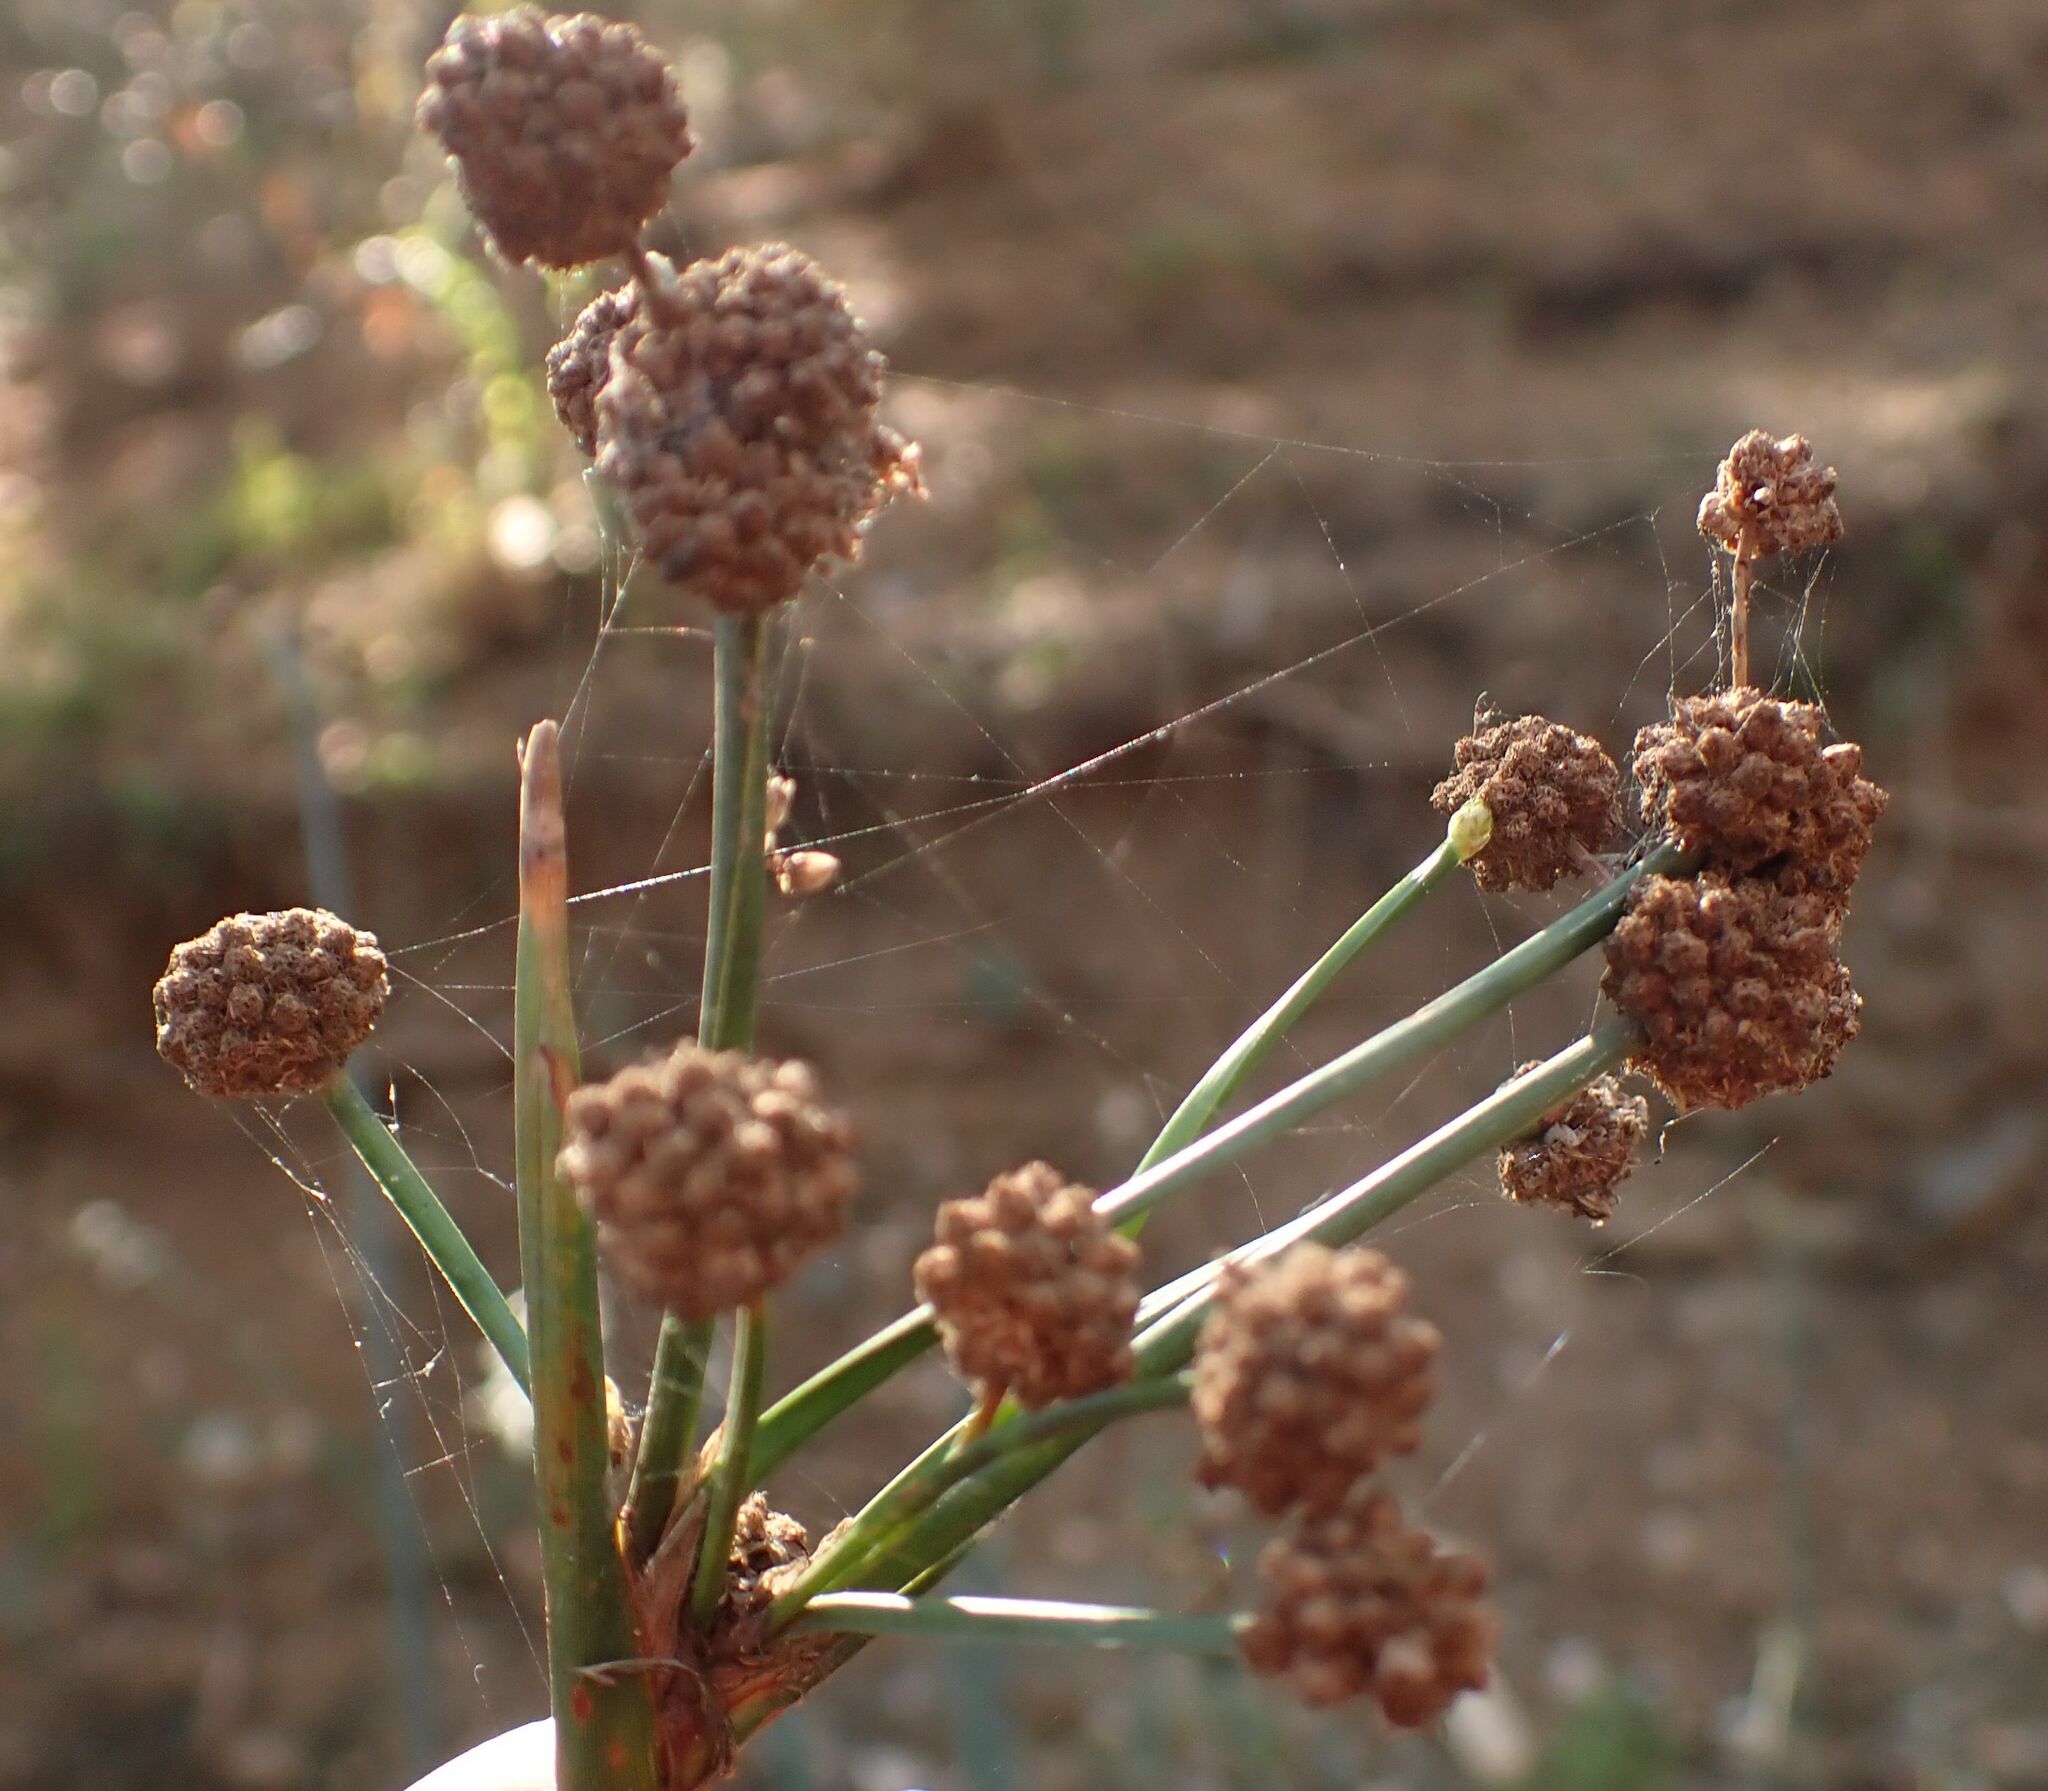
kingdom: Plantae
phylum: Tracheophyta
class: Liliopsida
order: Poales
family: Cyperaceae
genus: Scirpoides
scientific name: Scirpoides holoschoenus
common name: Round-headed club-rush
